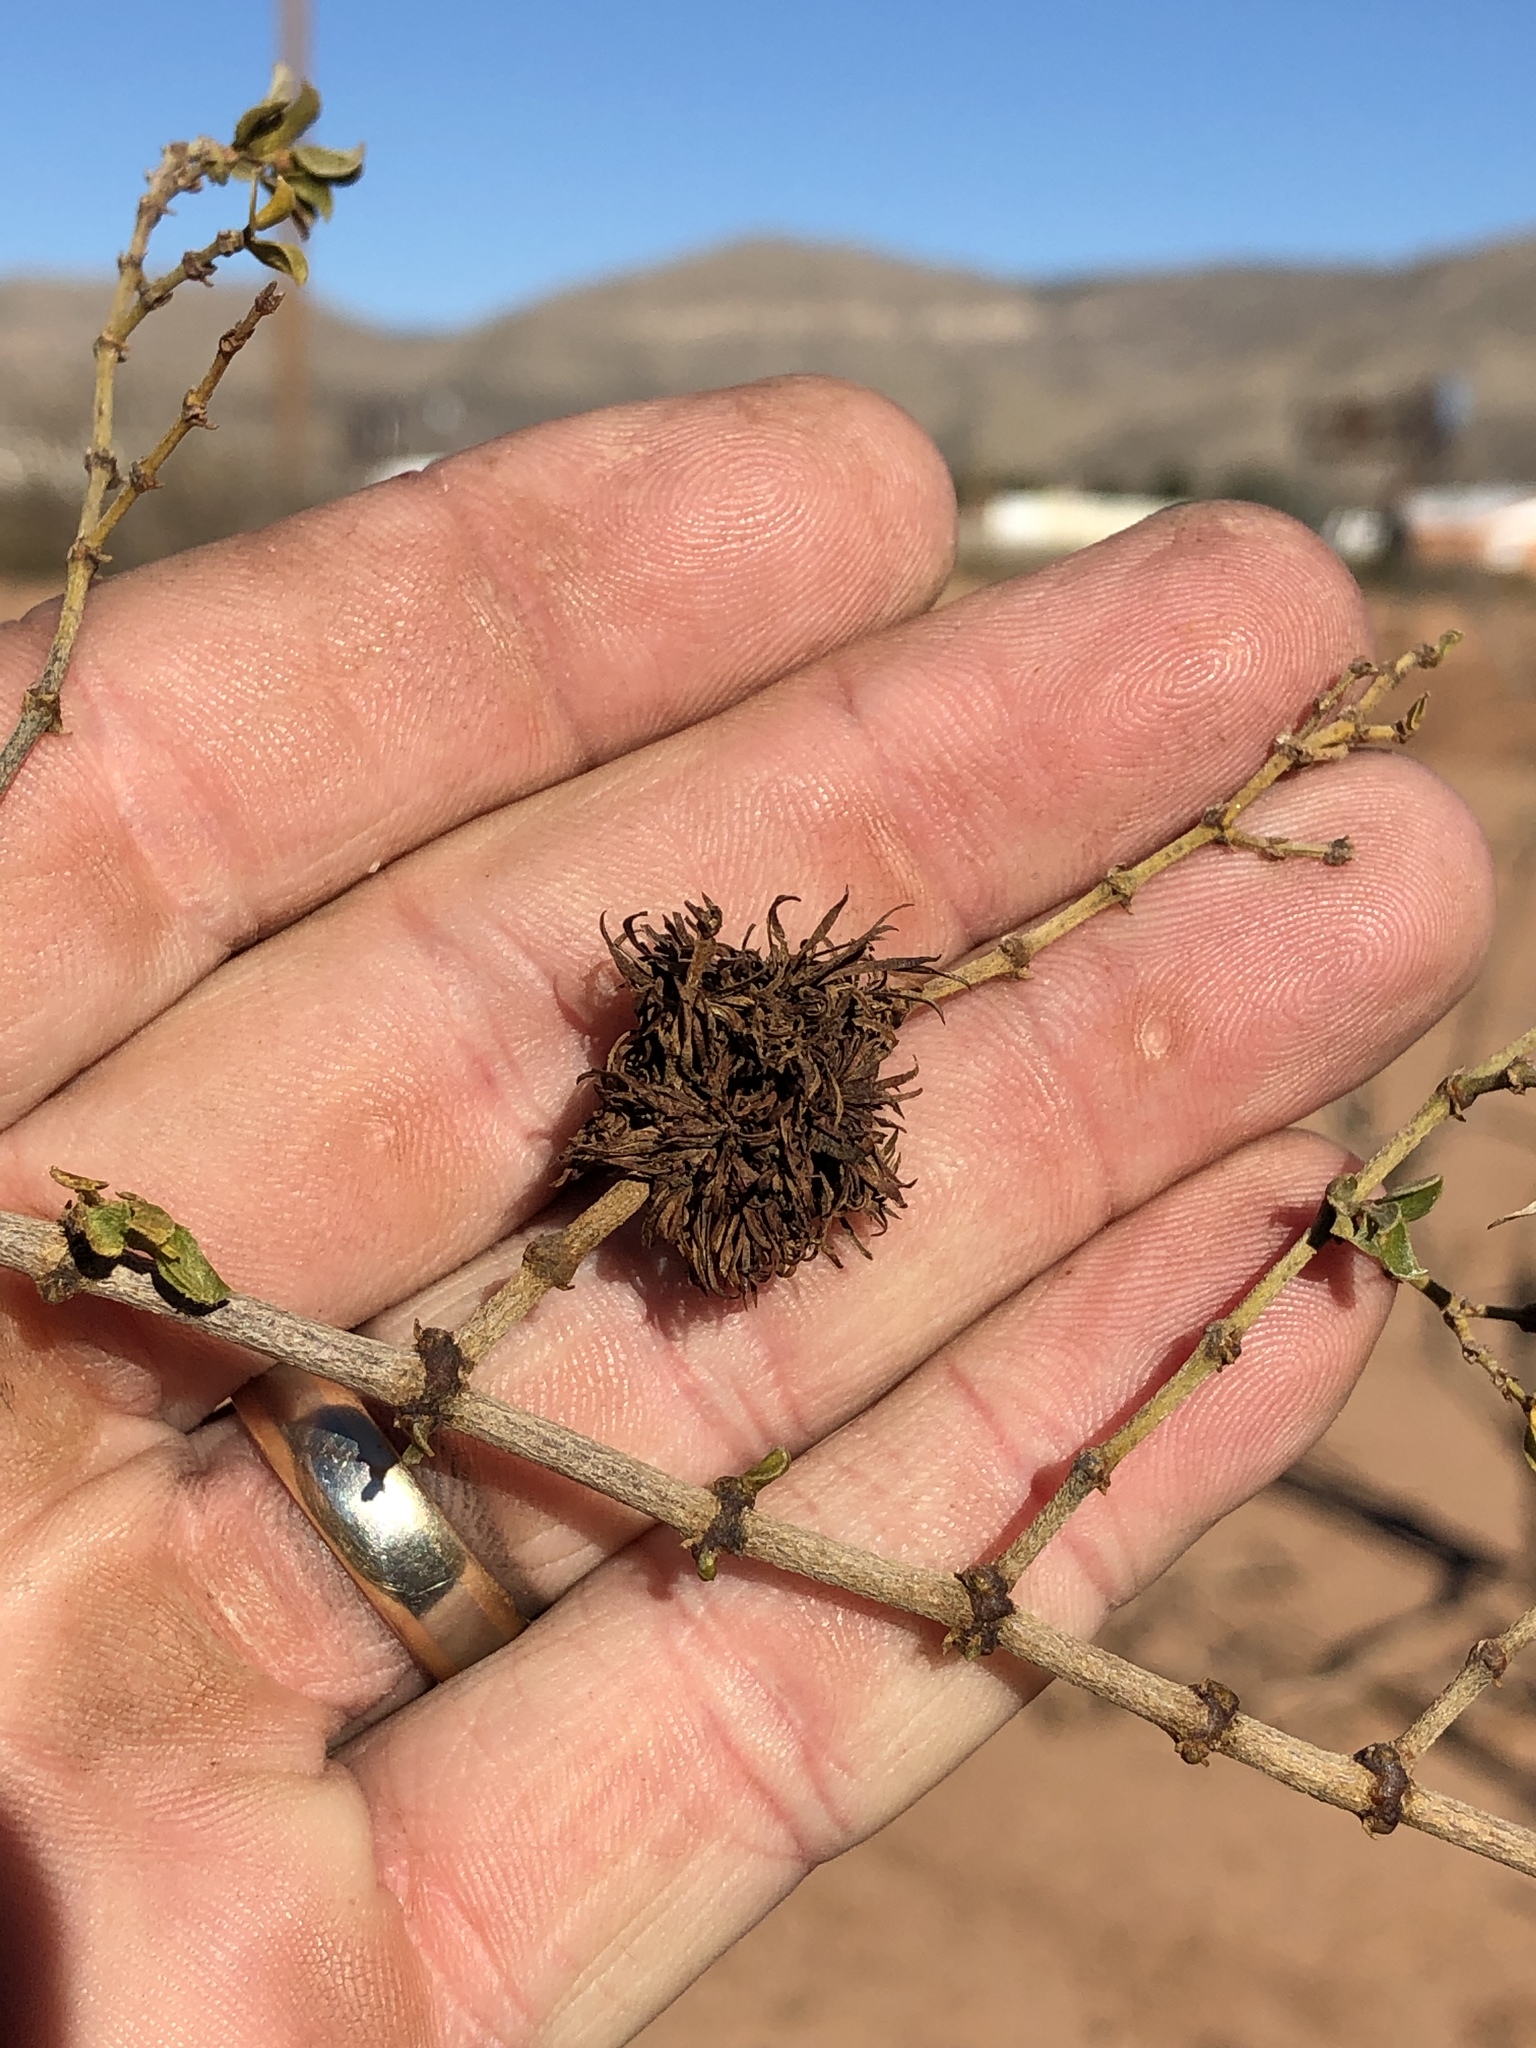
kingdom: Animalia
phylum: Arthropoda
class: Insecta
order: Diptera
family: Cecidomyiidae
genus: Asphondylia
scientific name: Asphondylia auripila
